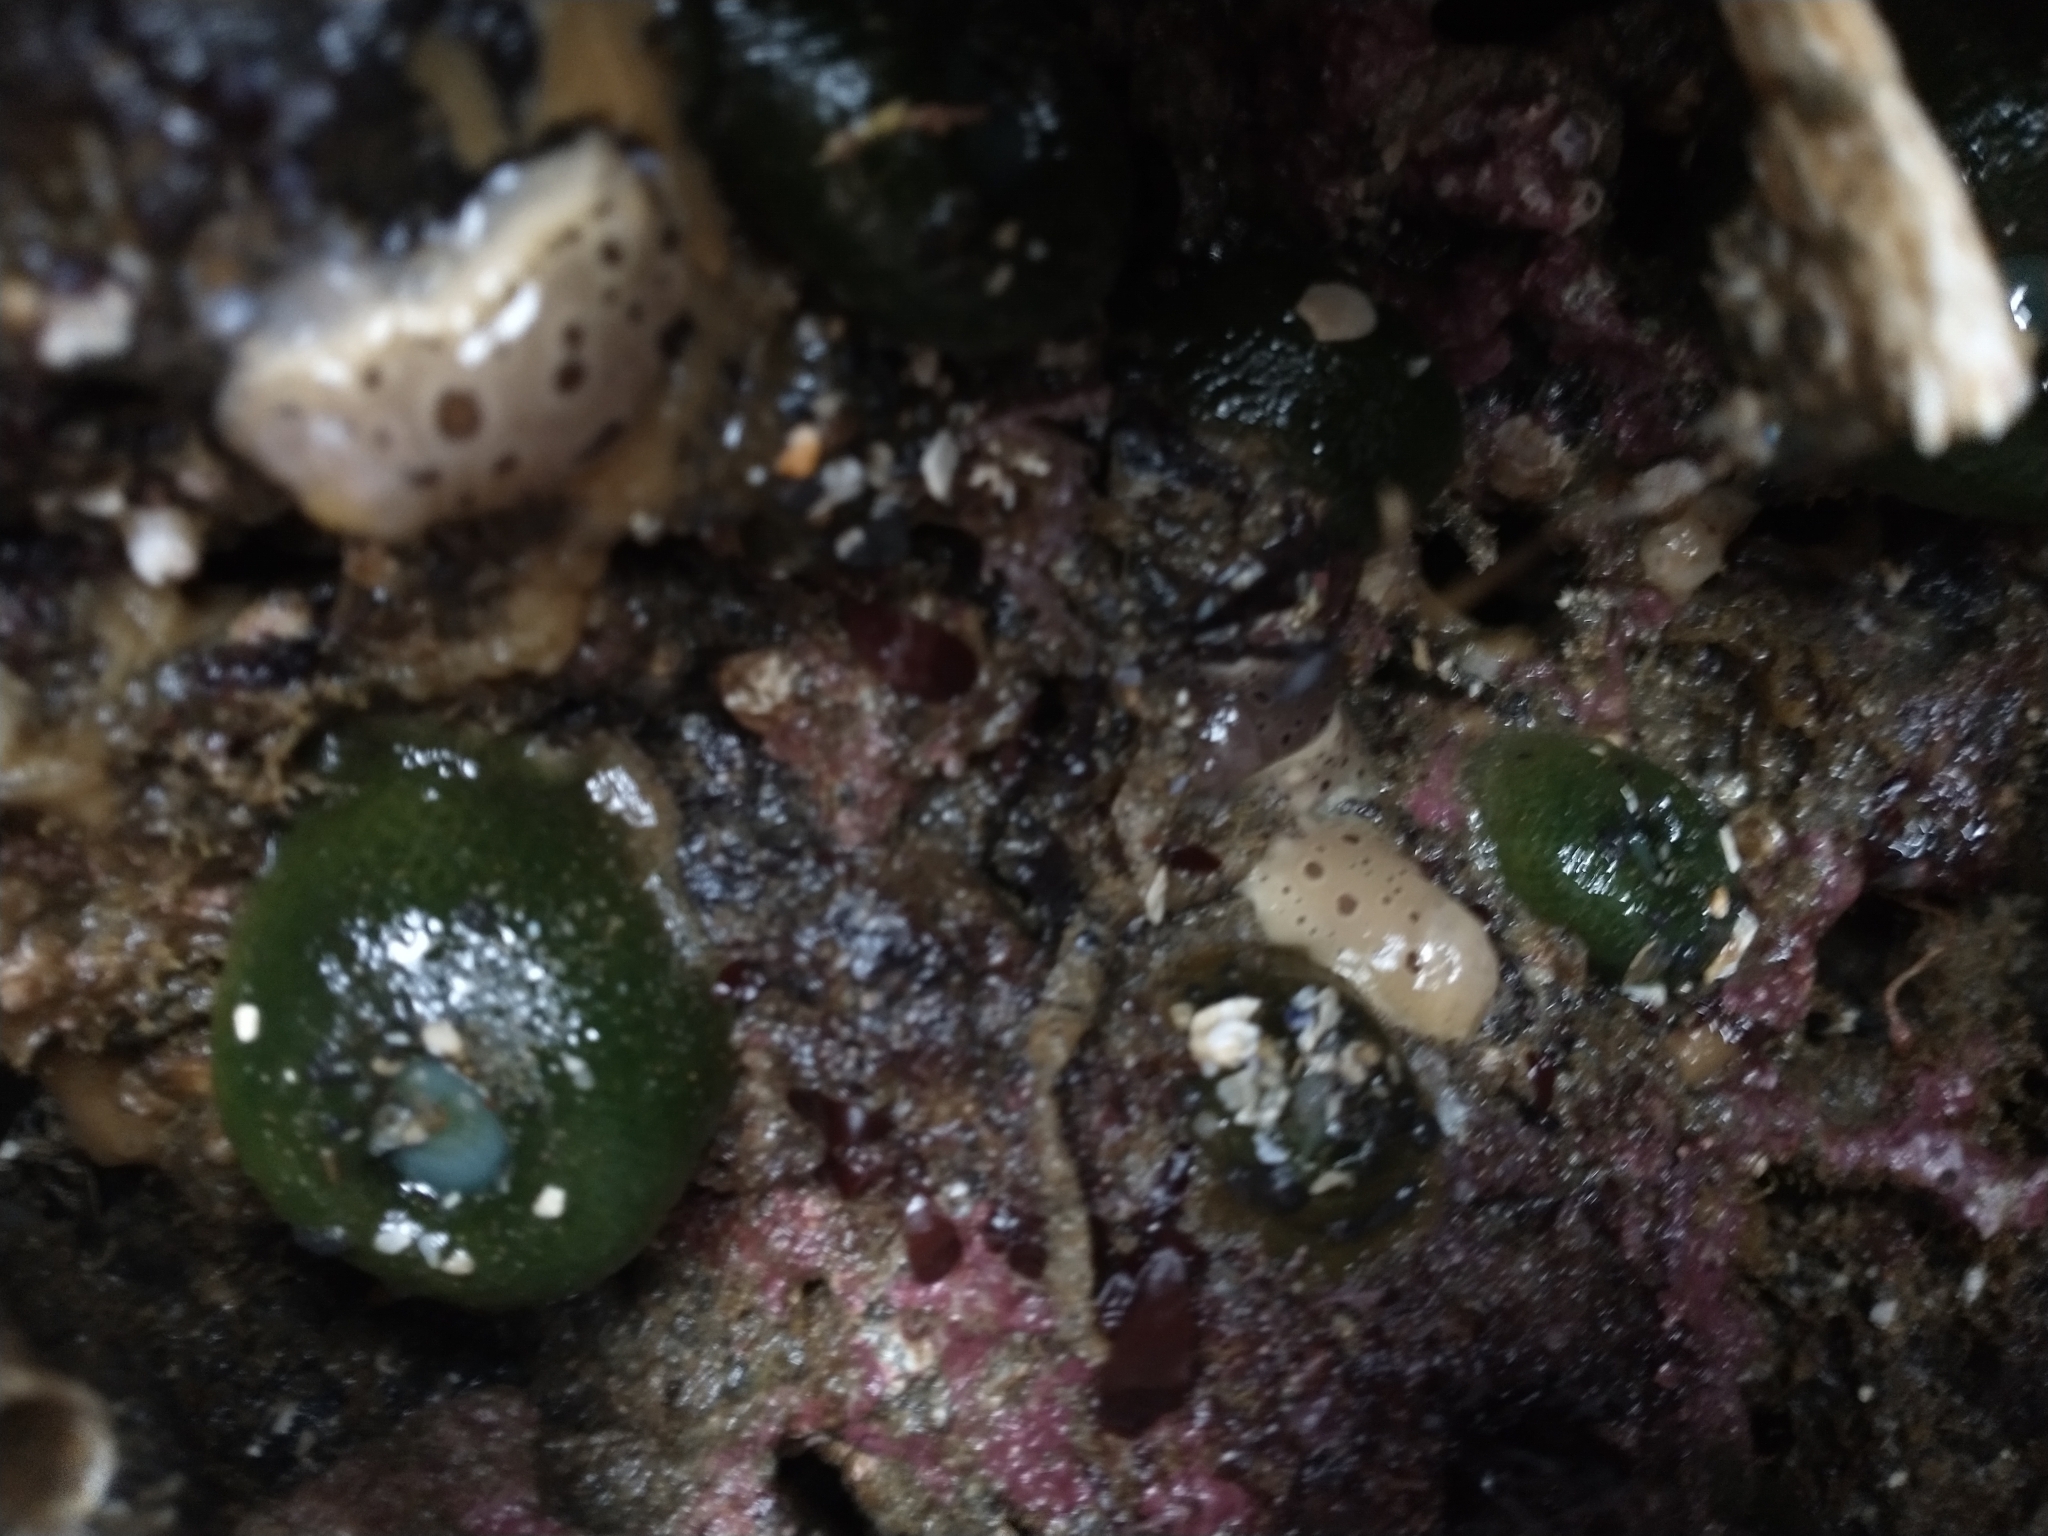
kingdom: Animalia
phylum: Mollusca
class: Gastropoda
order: Nudibranchia
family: Discodorididae
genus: Diaulula
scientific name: Diaulula odonoghuei
